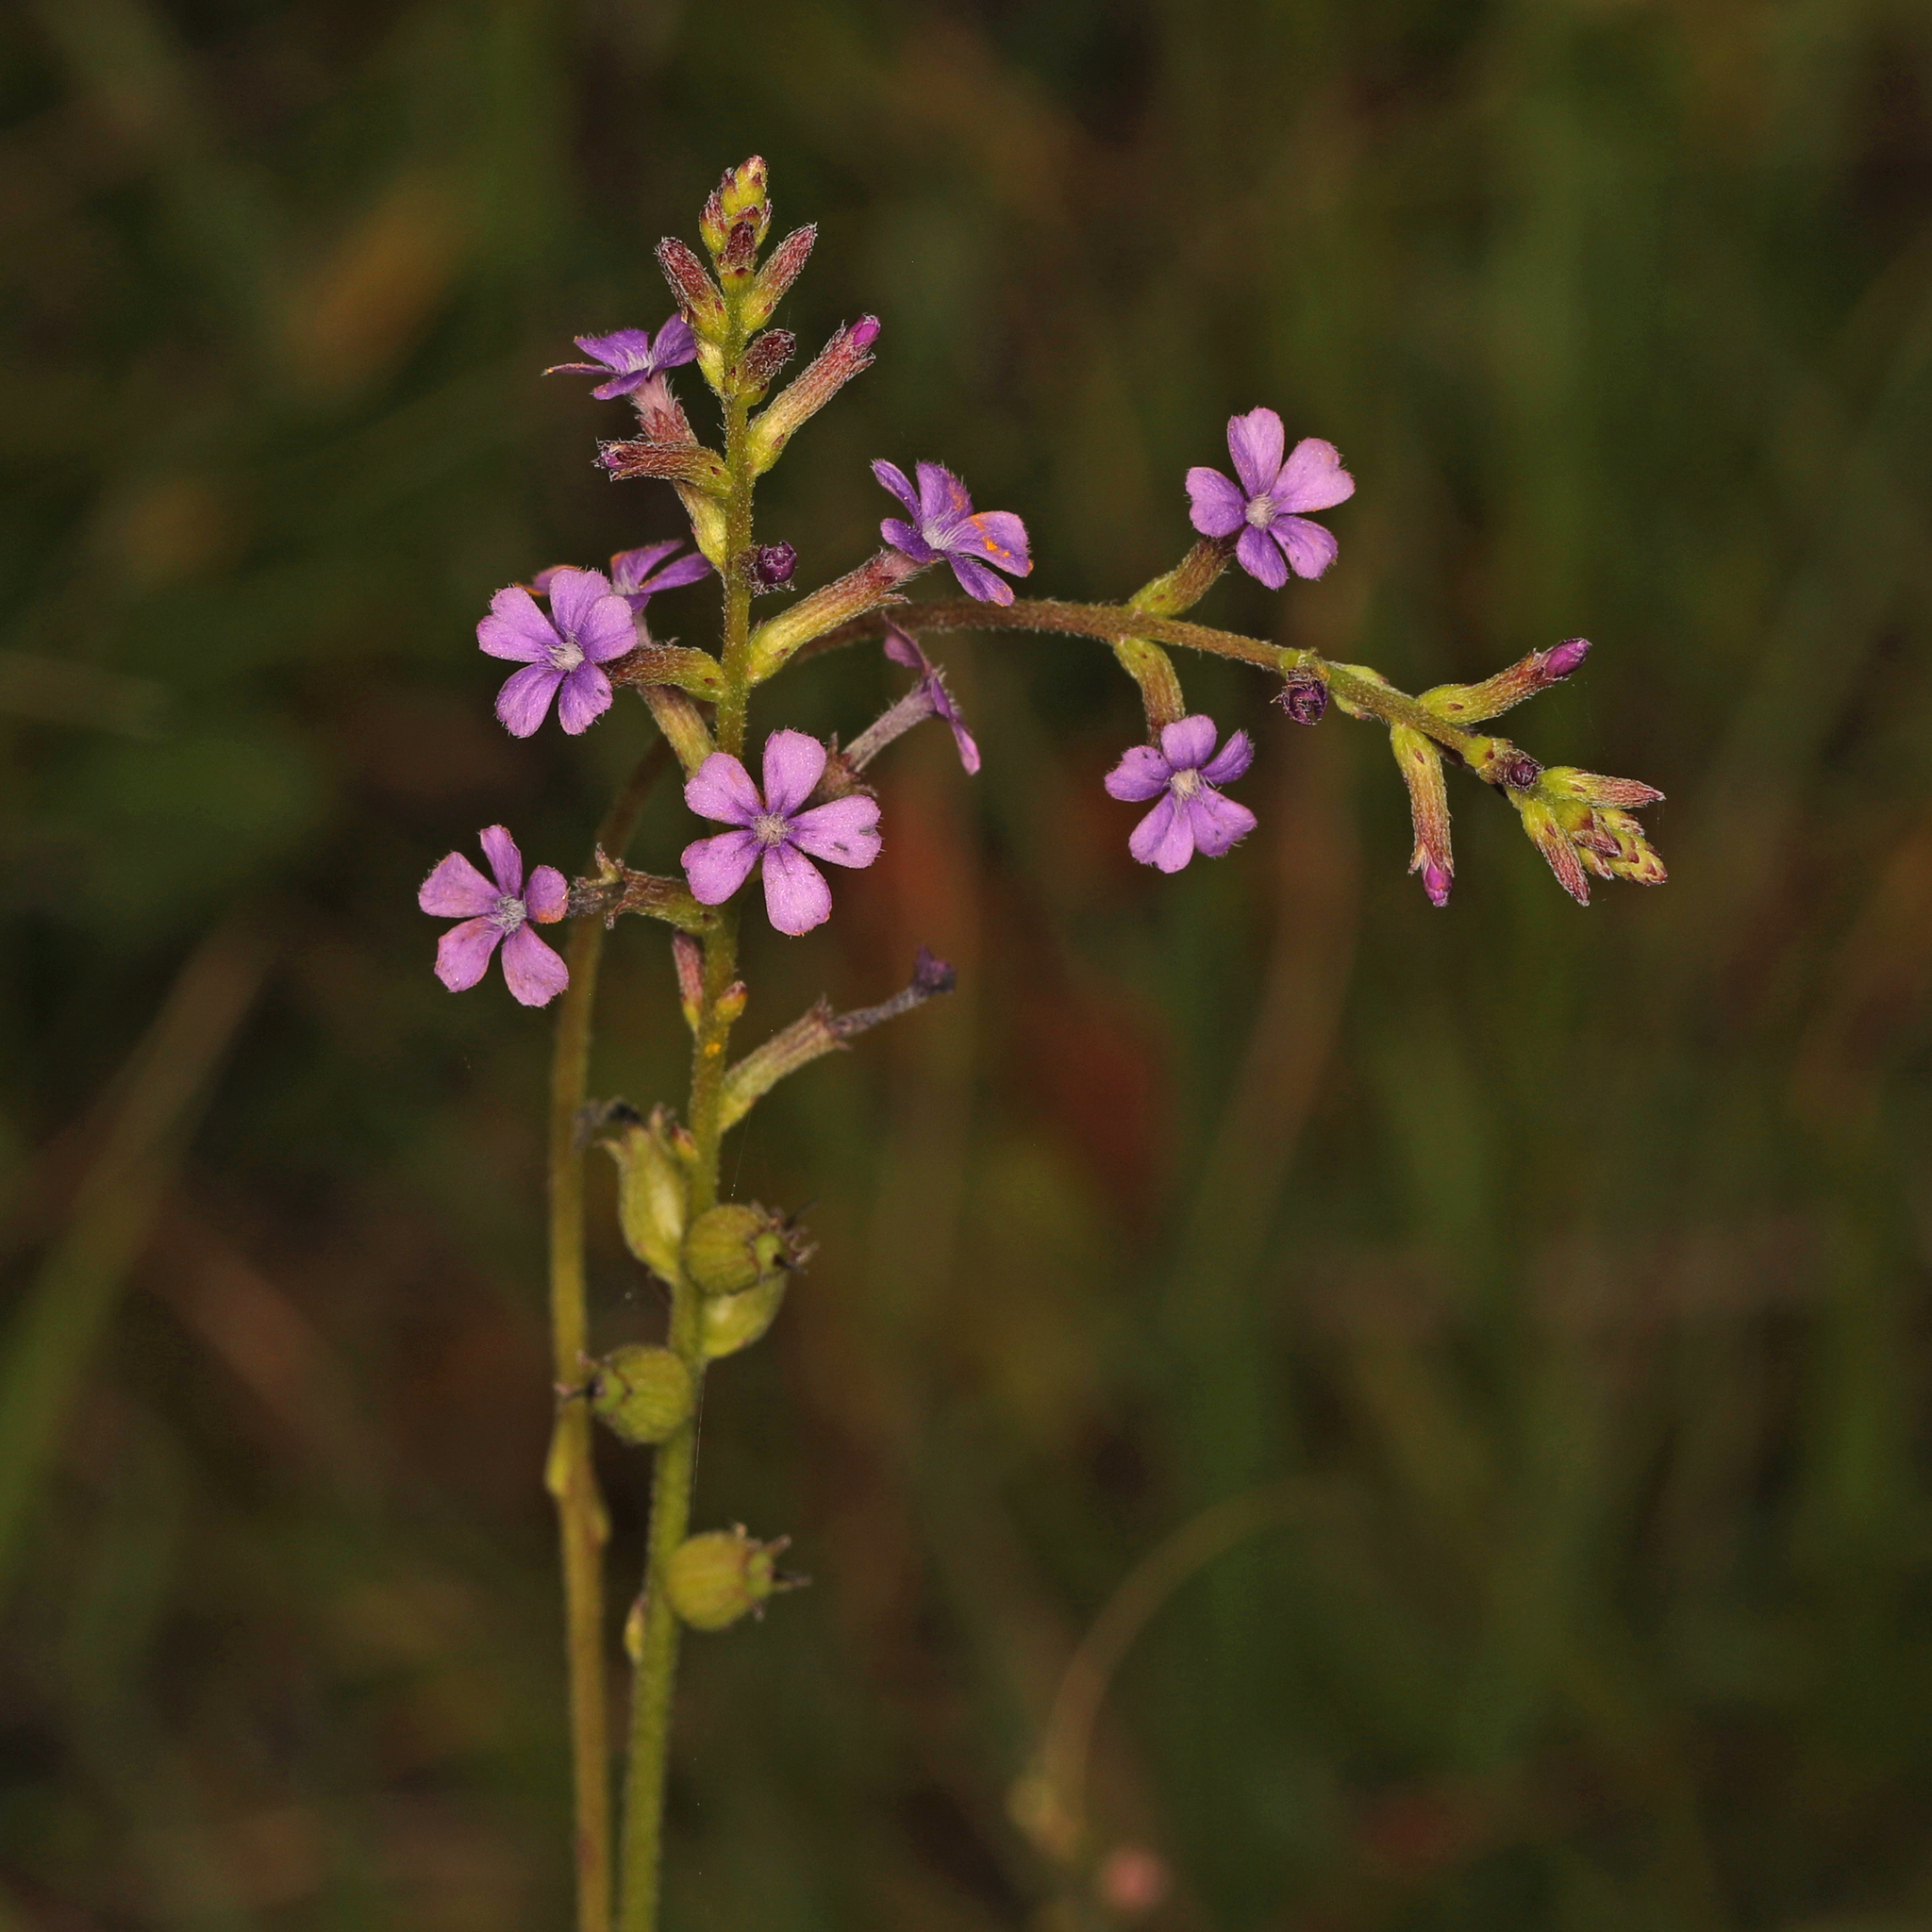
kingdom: Plantae
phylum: Tracheophyta
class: Magnoliopsida
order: Lamiales
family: Orobanchaceae
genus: Buchnera
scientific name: Buchnera floridana
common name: Florida bluehearts
